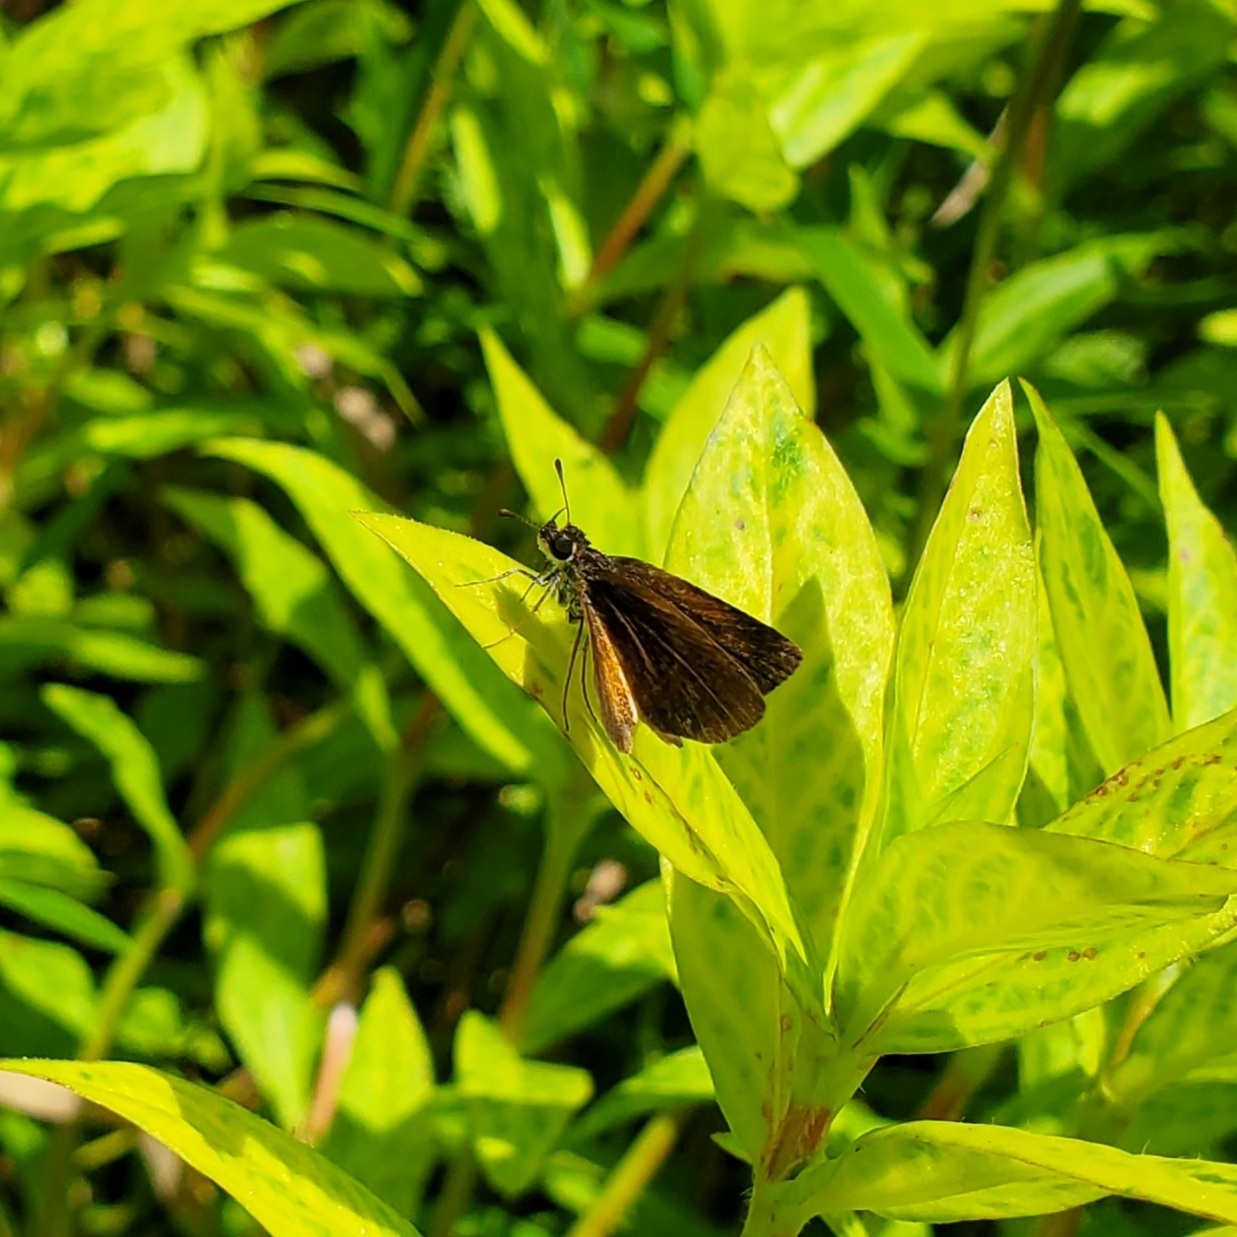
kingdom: Animalia
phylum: Arthropoda
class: Insecta
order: Lepidoptera
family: Hesperiidae
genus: Ancyloxypha
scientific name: Ancyloxypha numitor
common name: Least skipper
